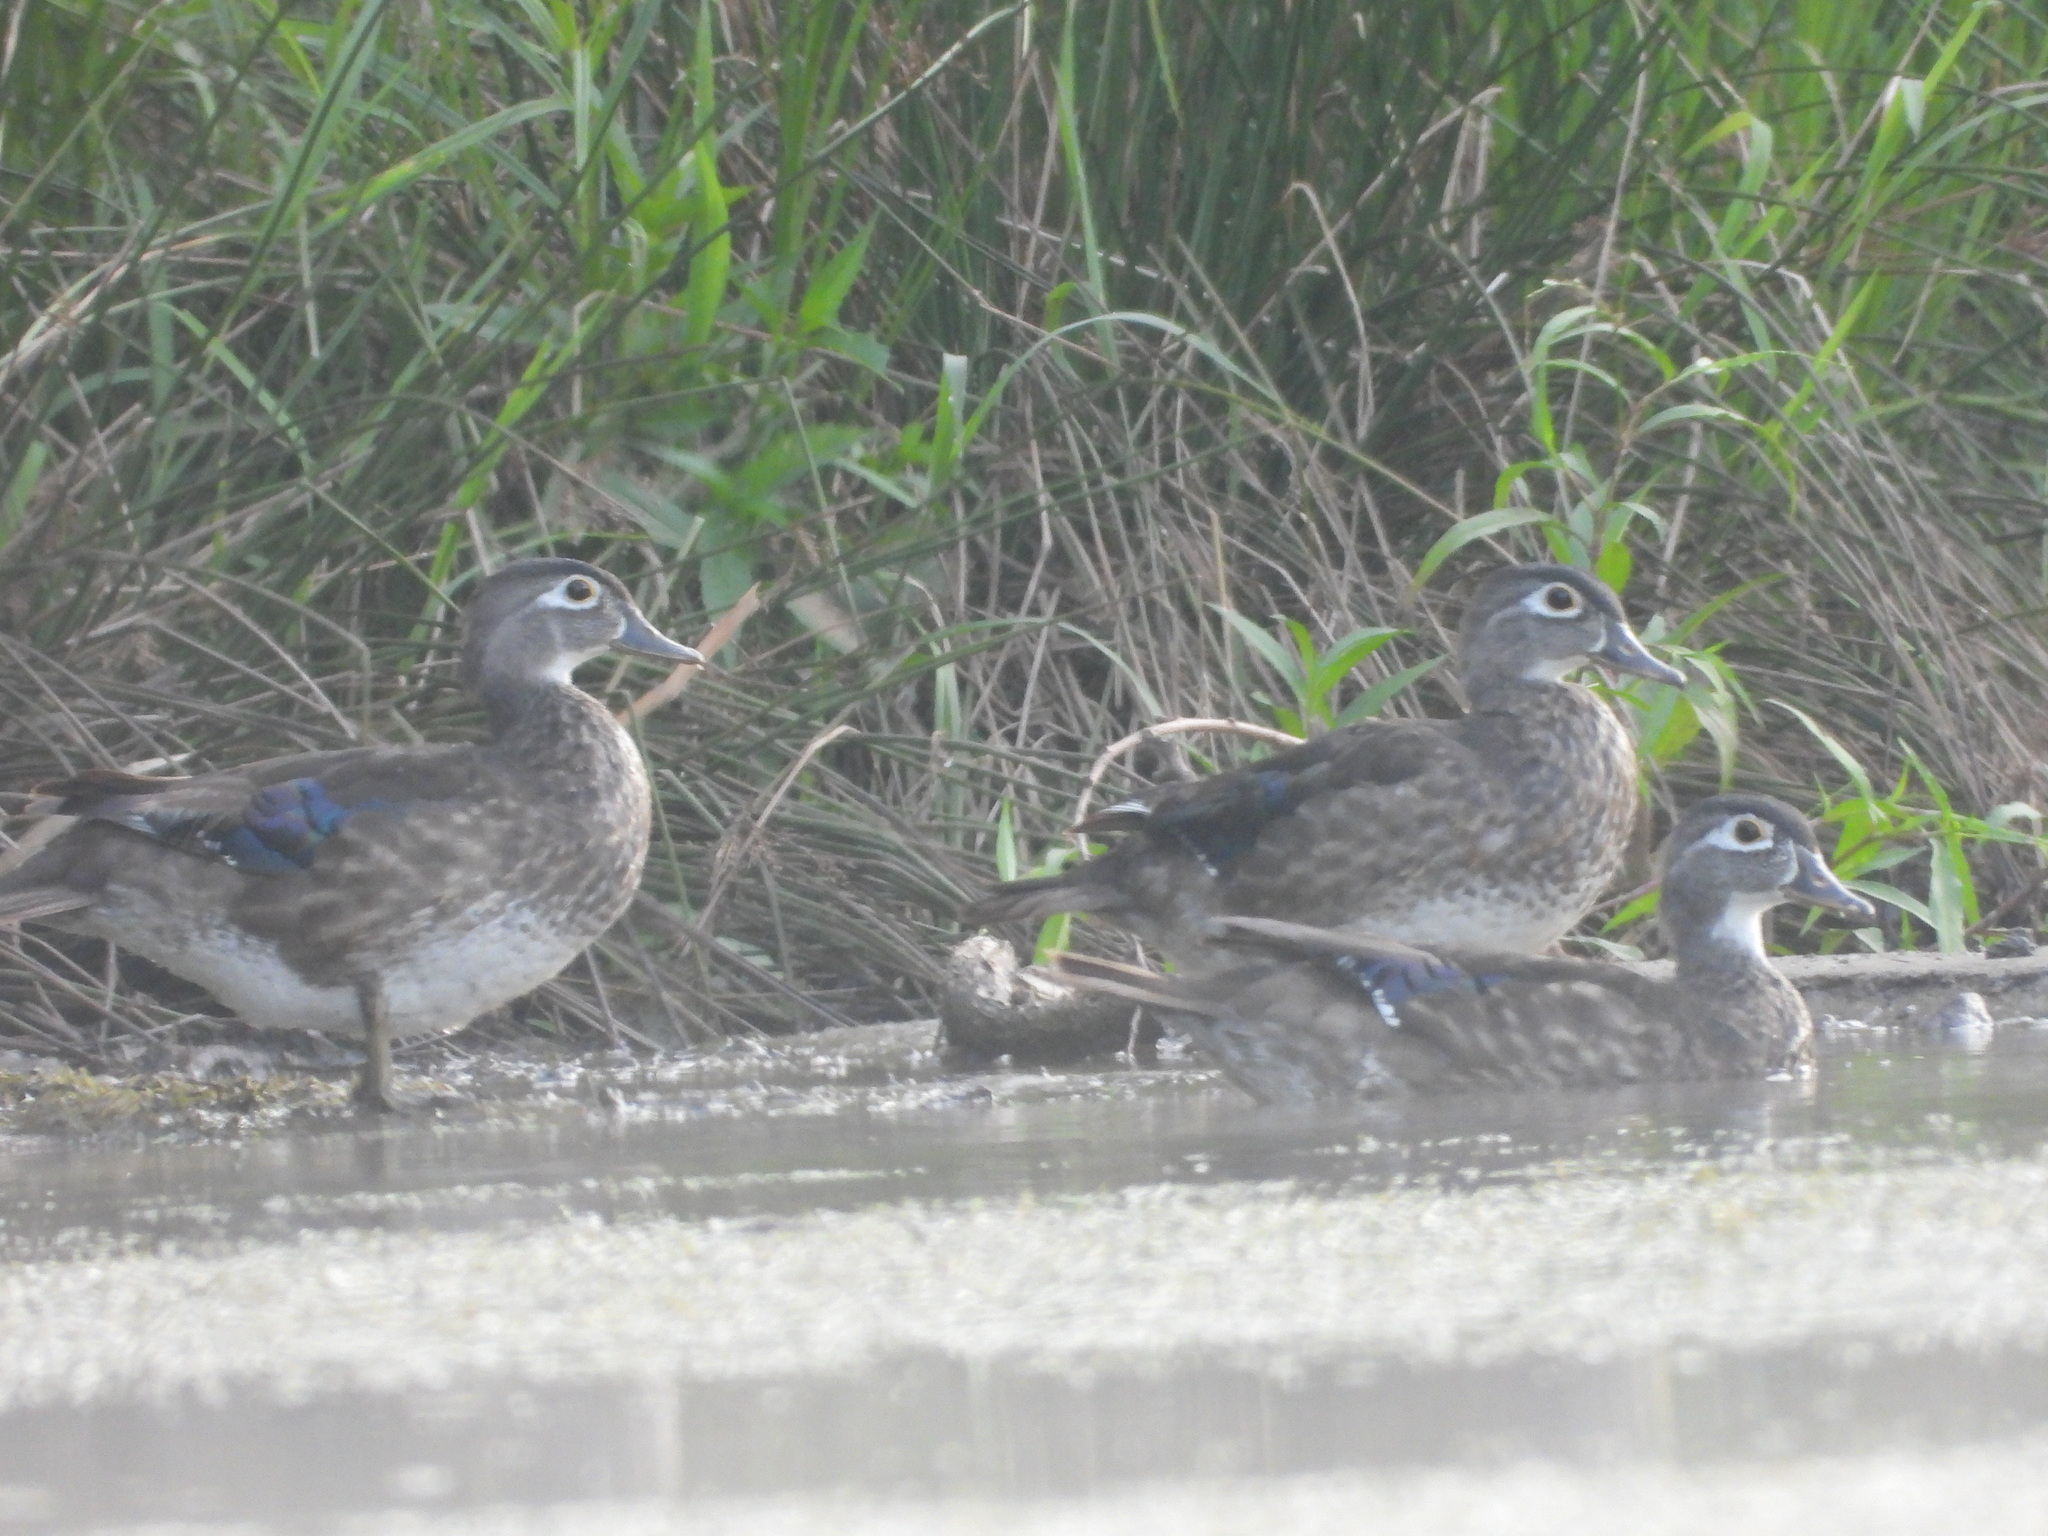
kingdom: Animalia
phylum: Chordata
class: Aves
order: Anseriformes
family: Anatidae
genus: Aix
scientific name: Aix sponsa
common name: Wood duck
